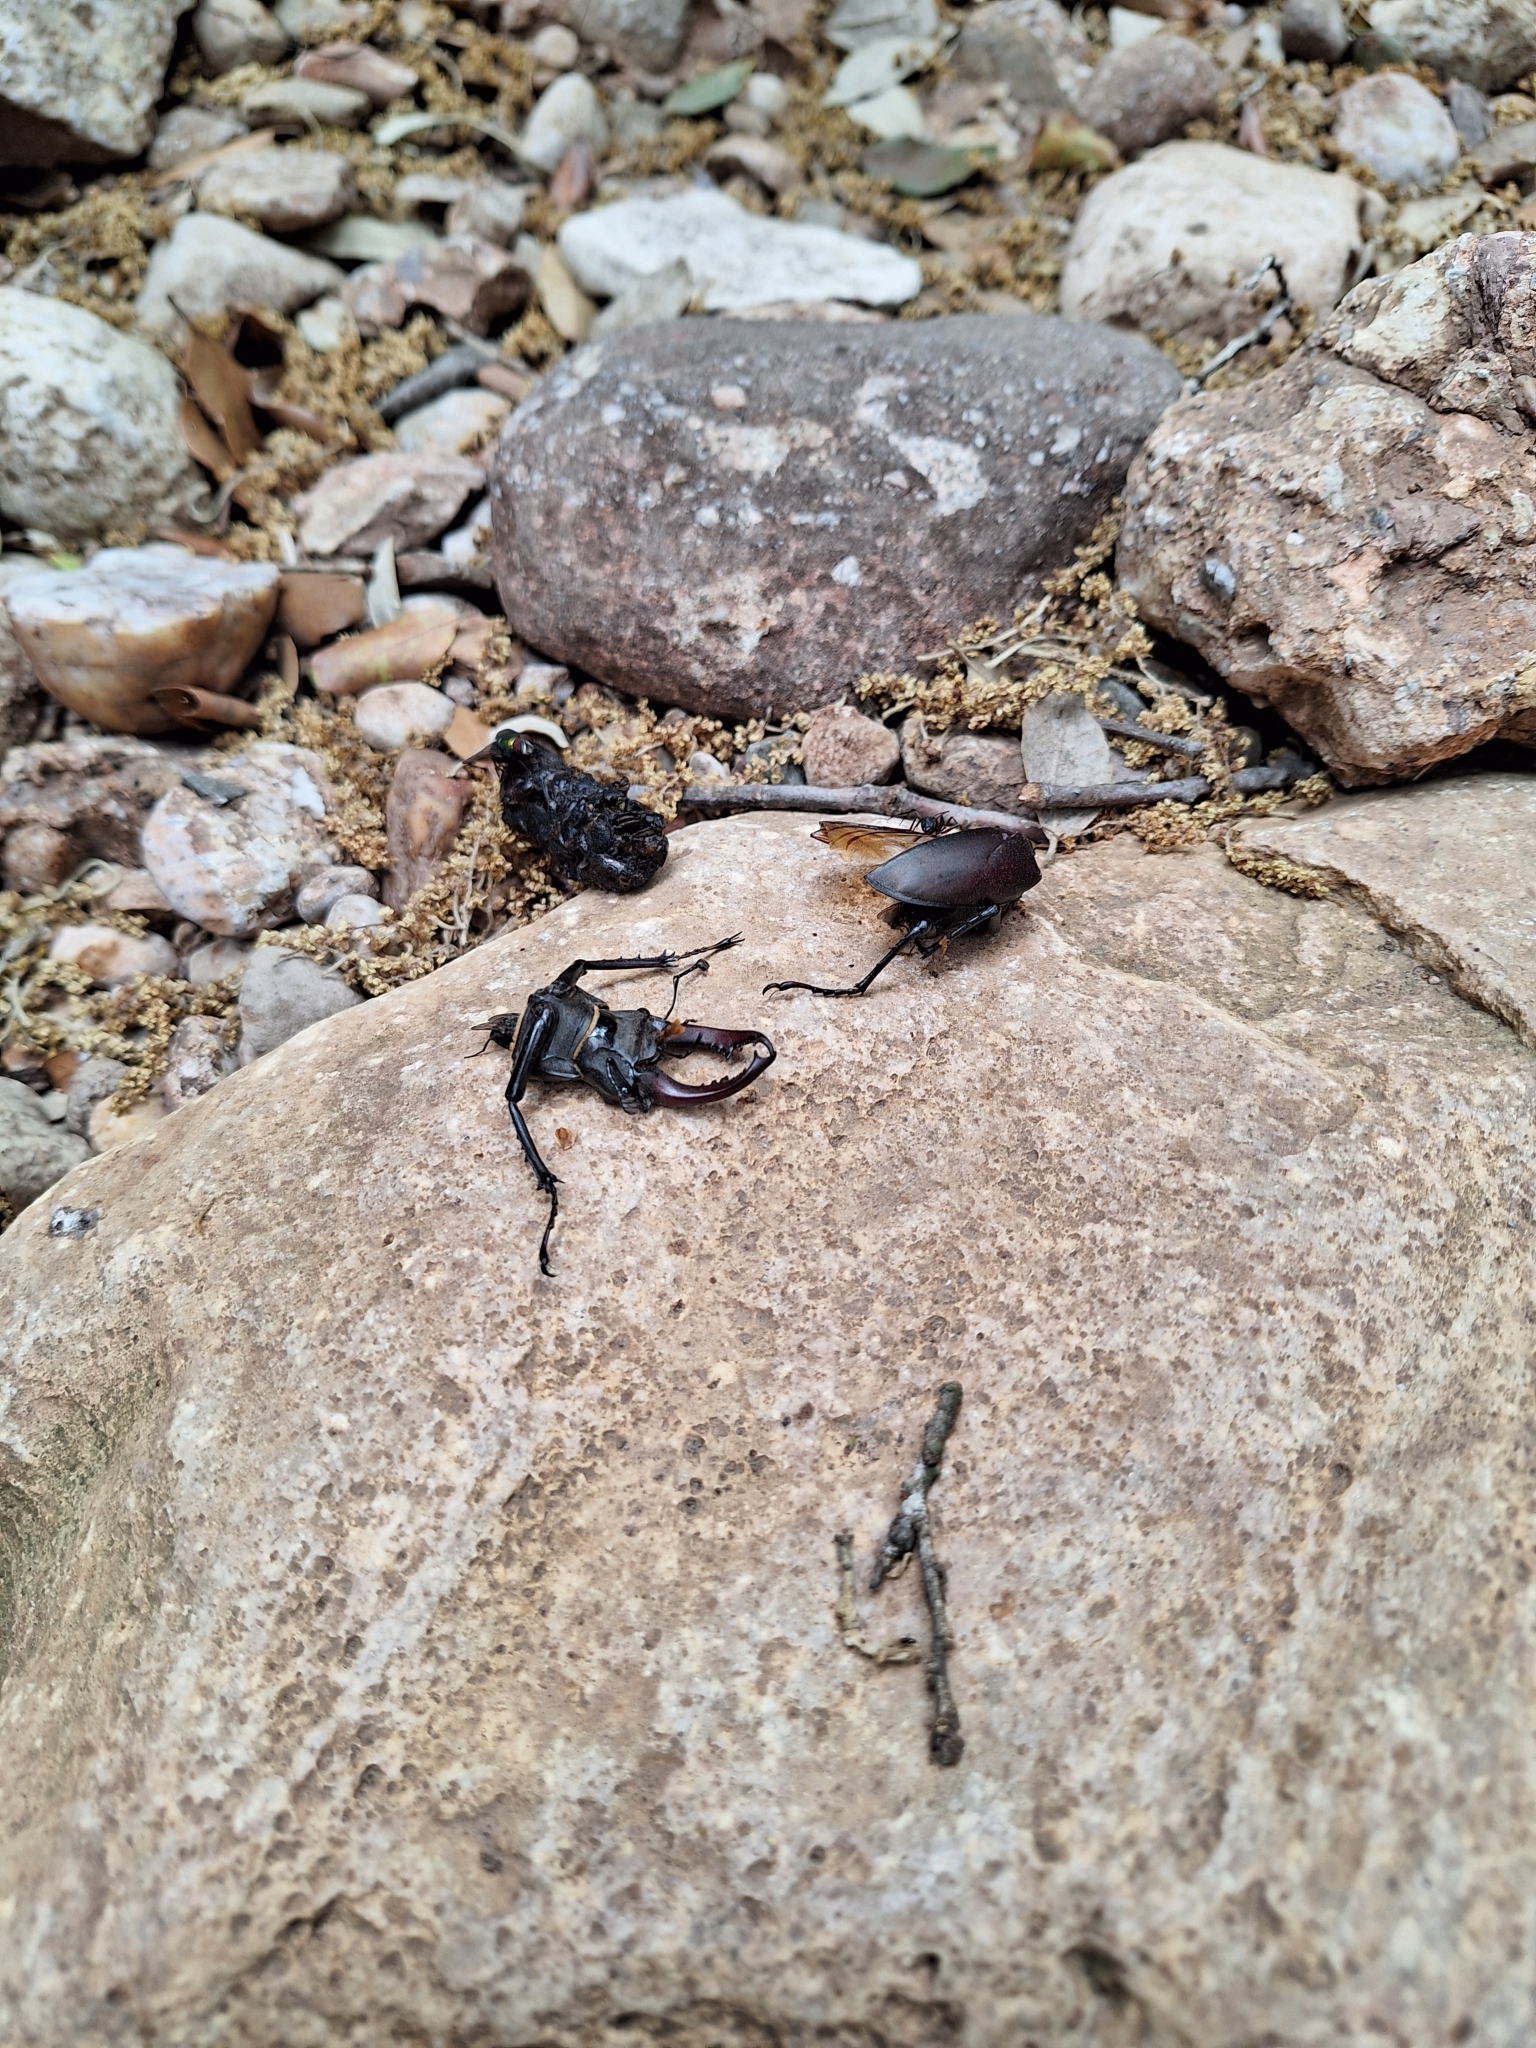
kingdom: Animalia
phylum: Arthropoda
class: Insecta
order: Coleoptera
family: Lucanidae
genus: Lucanus
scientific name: Lucanus cervus
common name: Stag beetle
